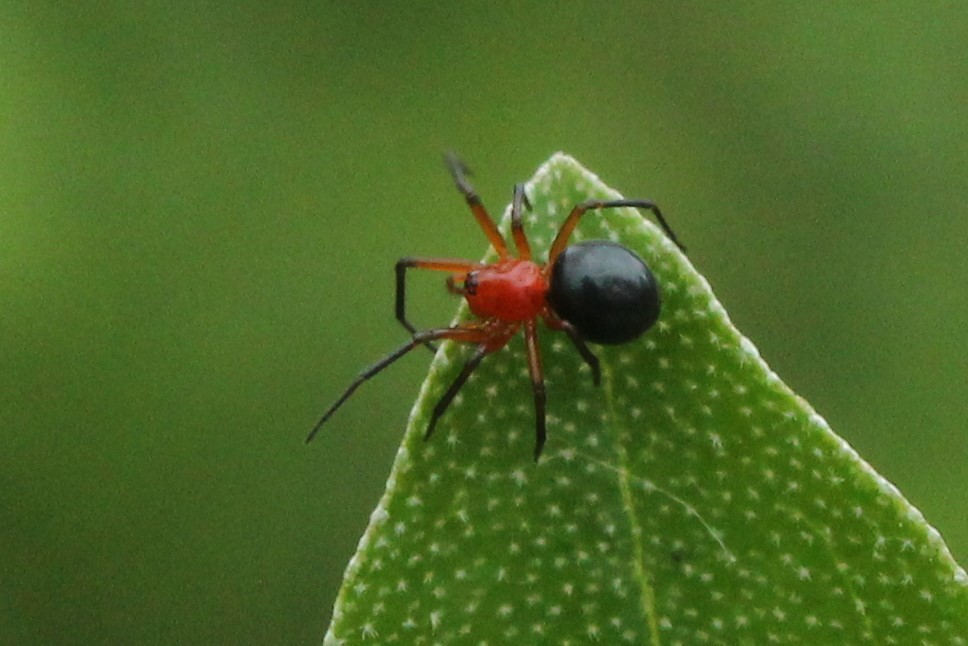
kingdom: Animalia
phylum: Arthropoda
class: Arachnida
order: Araneae
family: Linyphiidae
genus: Hypselistes
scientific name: Hypselistes florens
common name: Peatland sheetweb weaver
